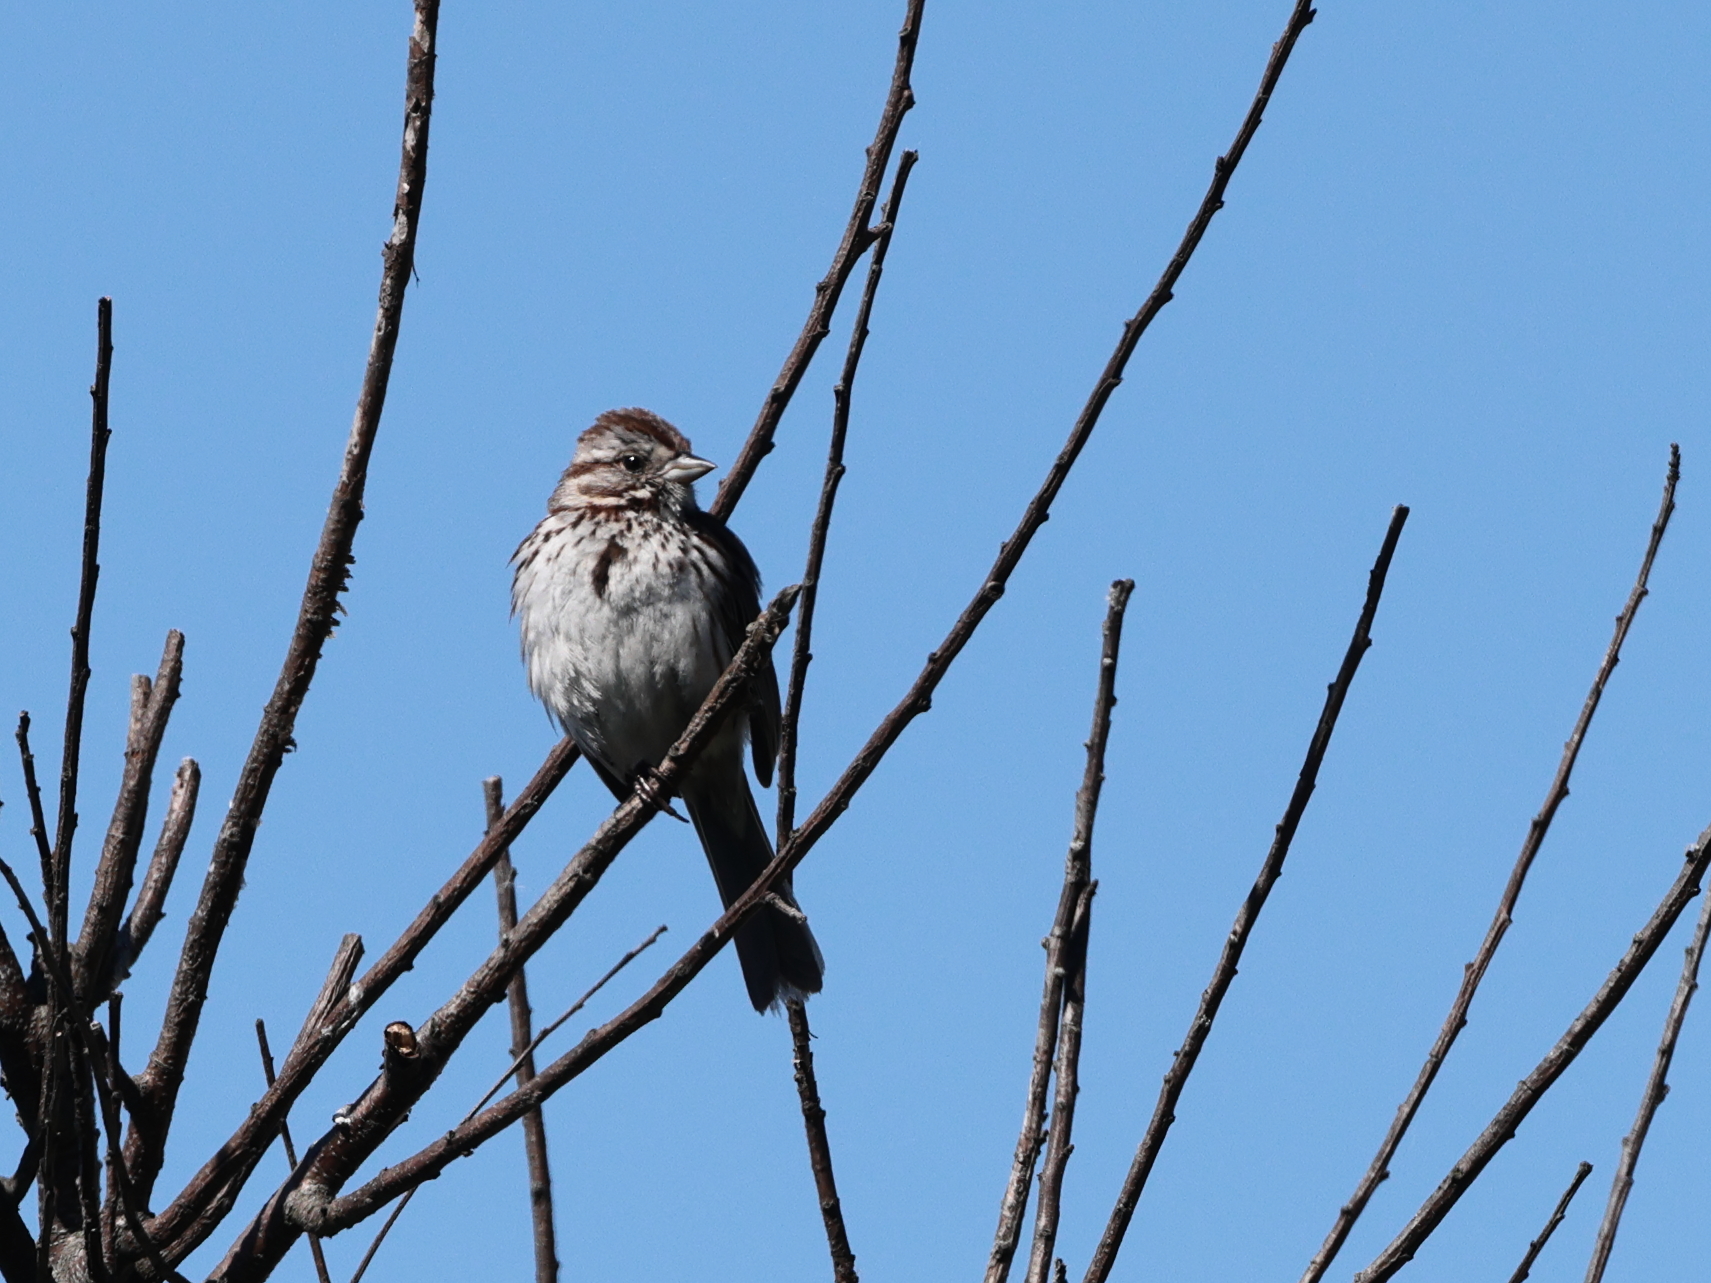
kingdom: Animalia
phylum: Chordata
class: Aves
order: Passeriformes
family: Passerellidae
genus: Melospiza
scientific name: Melospiza melodia
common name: Song sparrow
